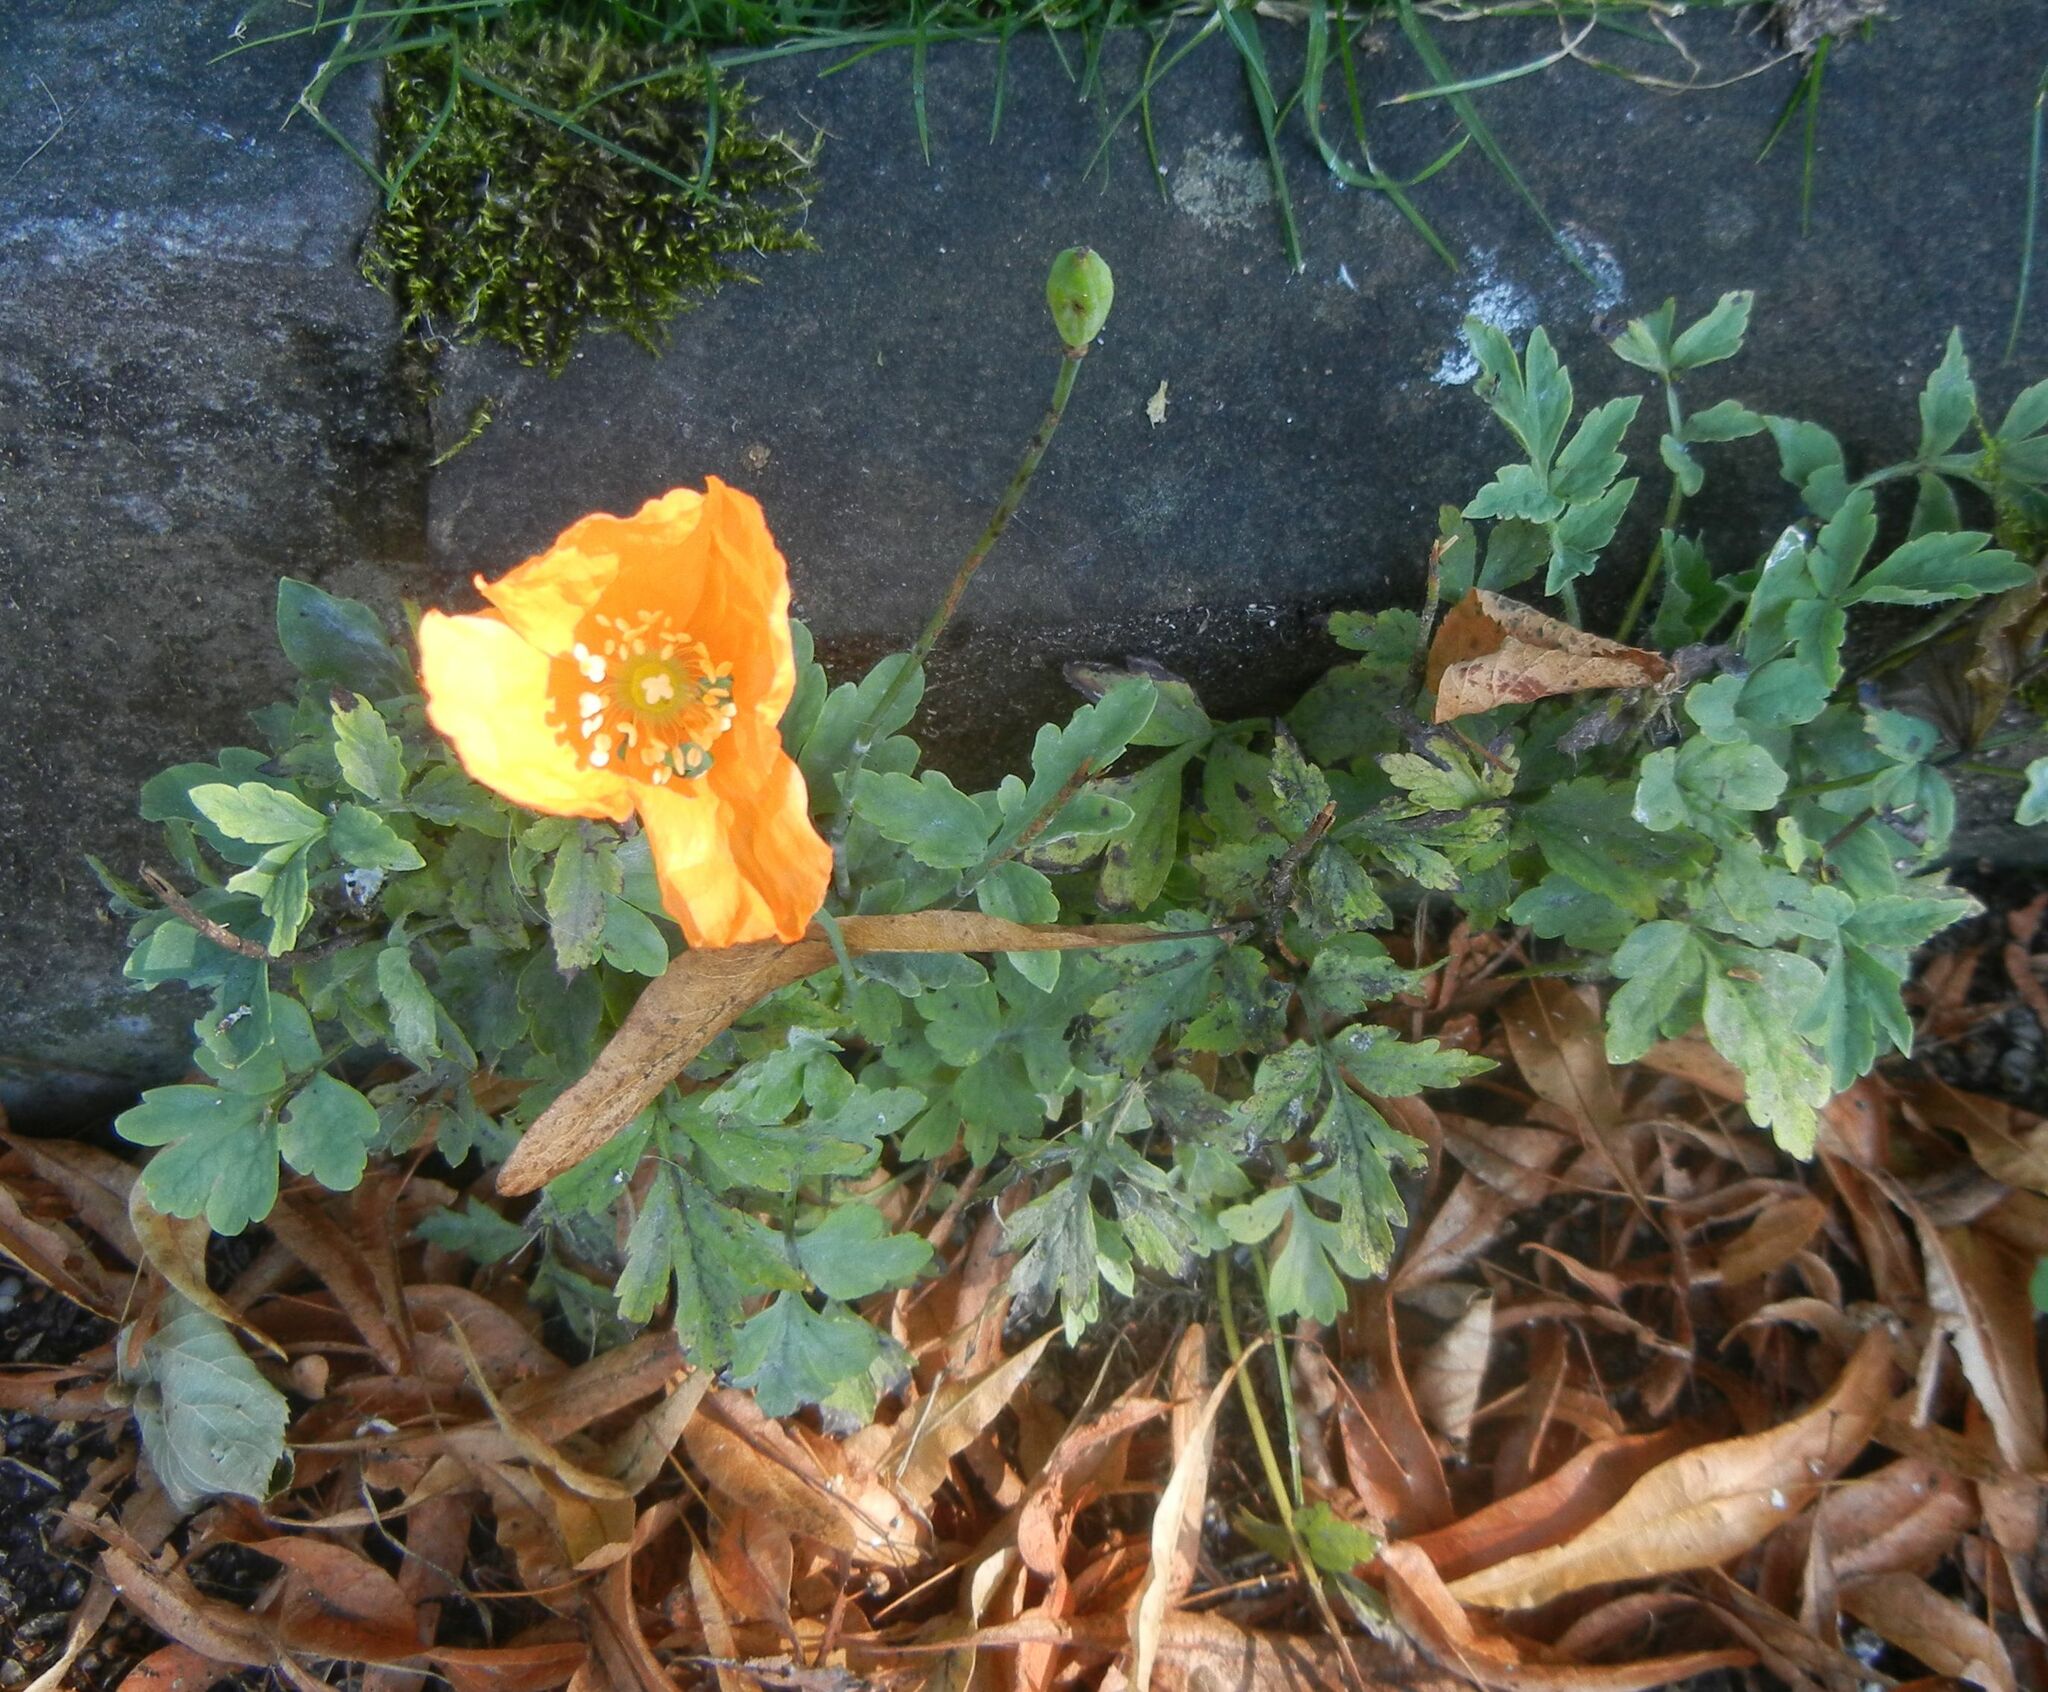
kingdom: Plantae
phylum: Tracheophyta
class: Magnoliopsida
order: Ranunculales
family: Papaveraceae
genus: Papaver
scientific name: Papaver cambricum
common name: Poppy
